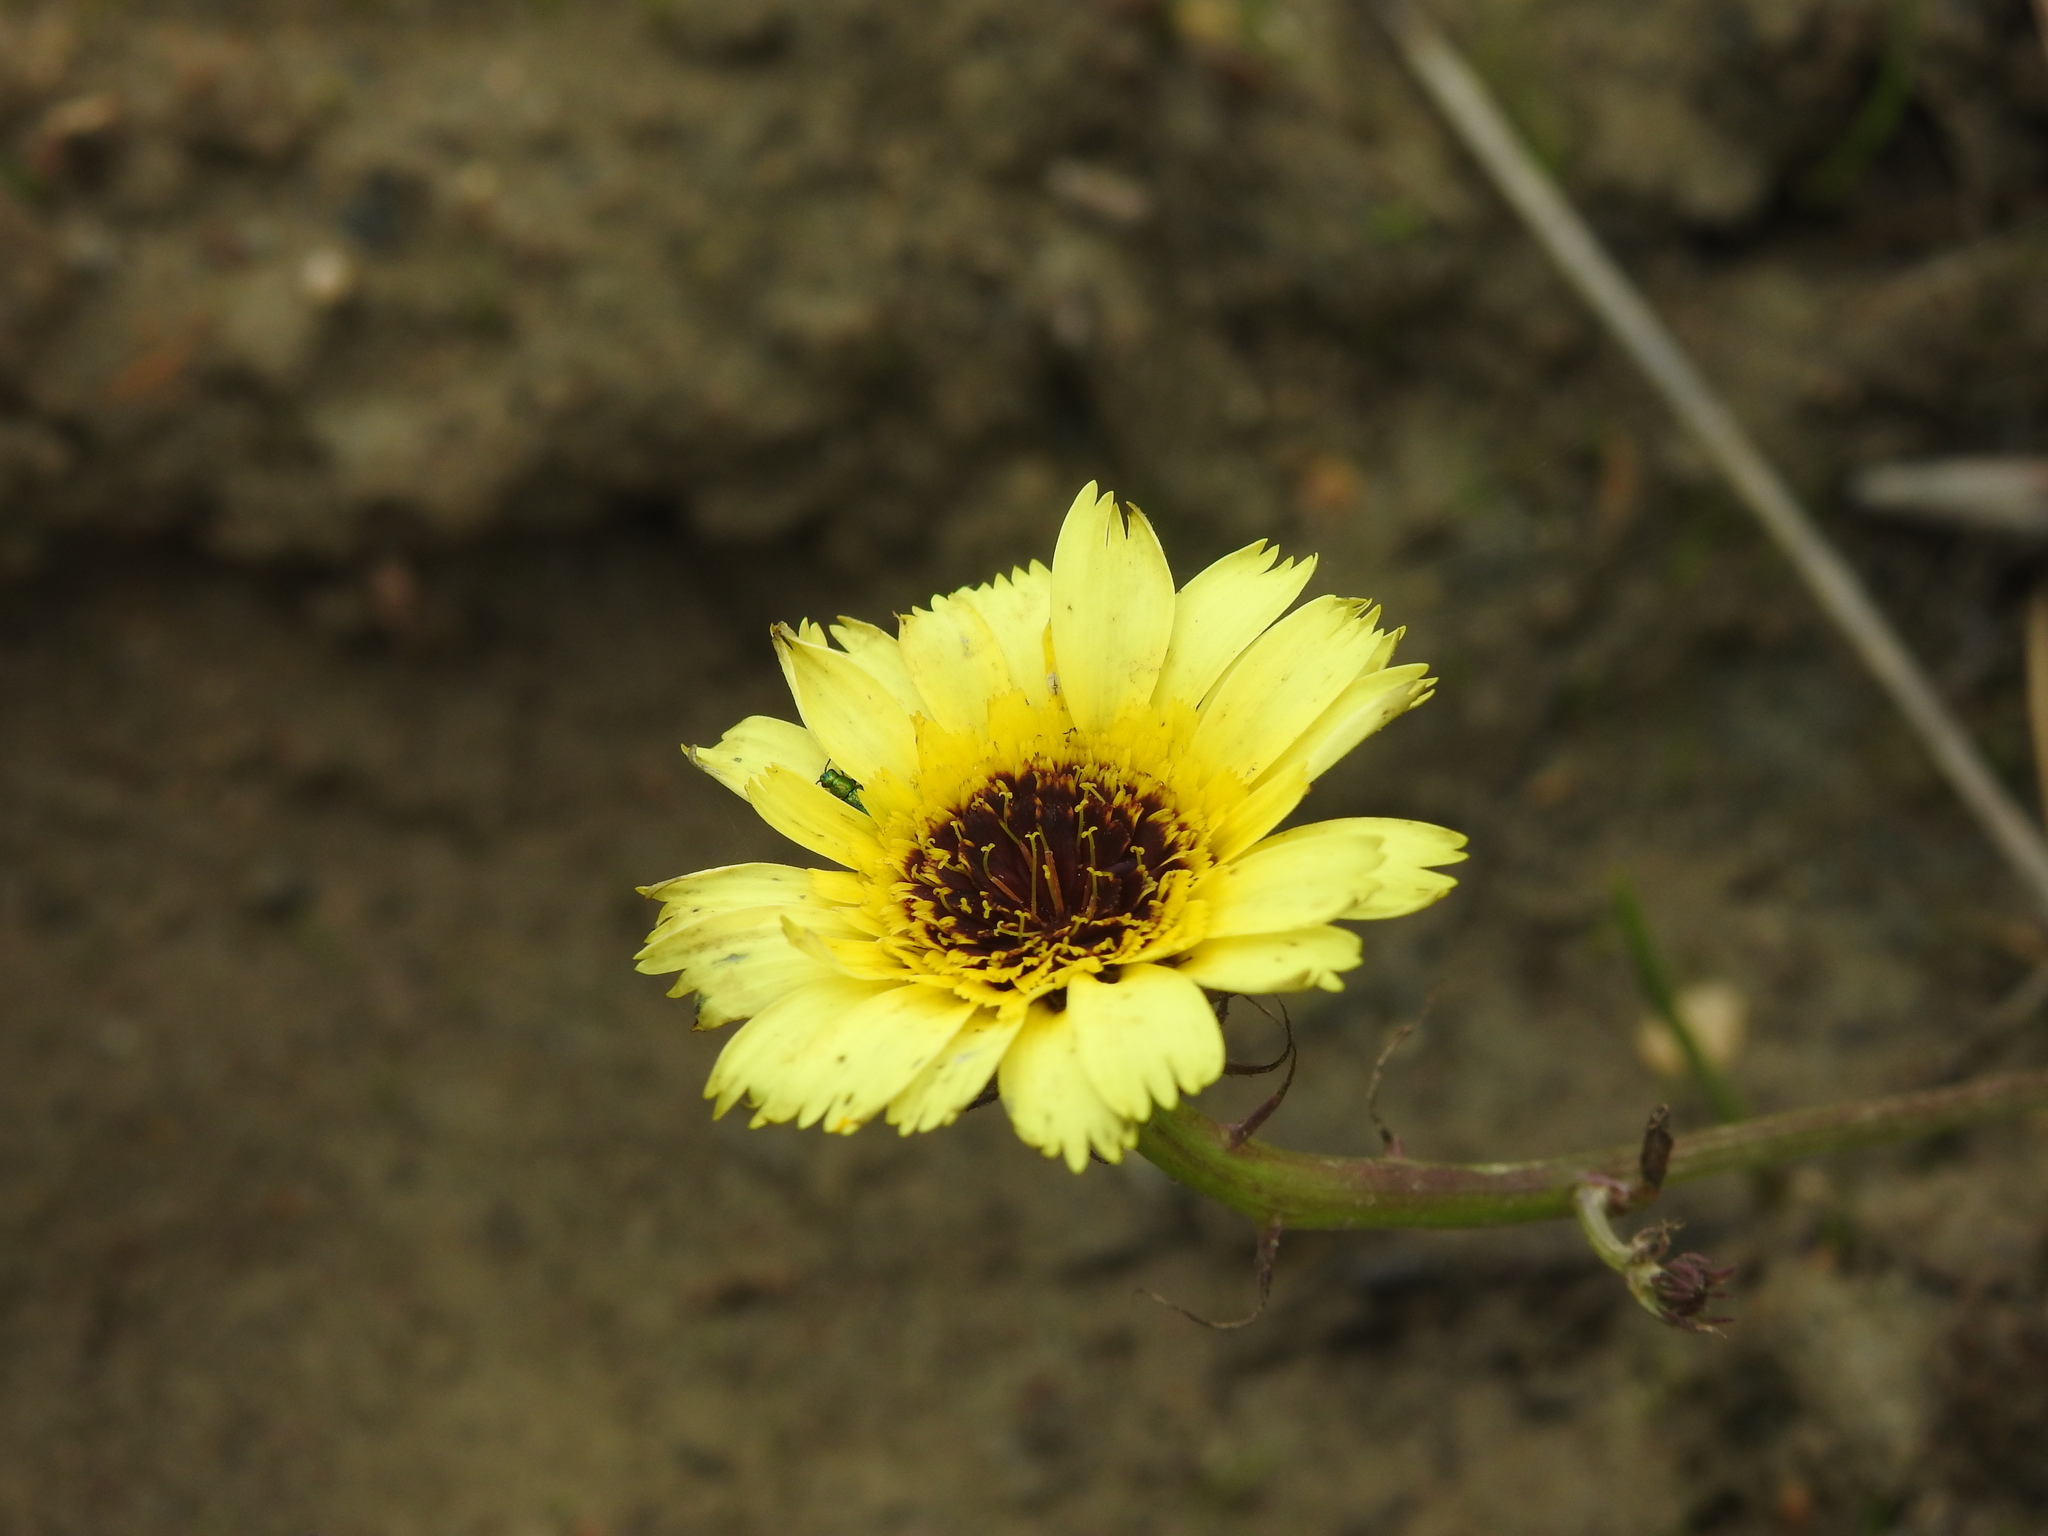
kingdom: Plantae
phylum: Tracheophyta
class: Magnoliopsida
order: Asterales
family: Asteraceae
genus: Tolpis
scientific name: Tolpis barbata
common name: Yellow hawkweed
